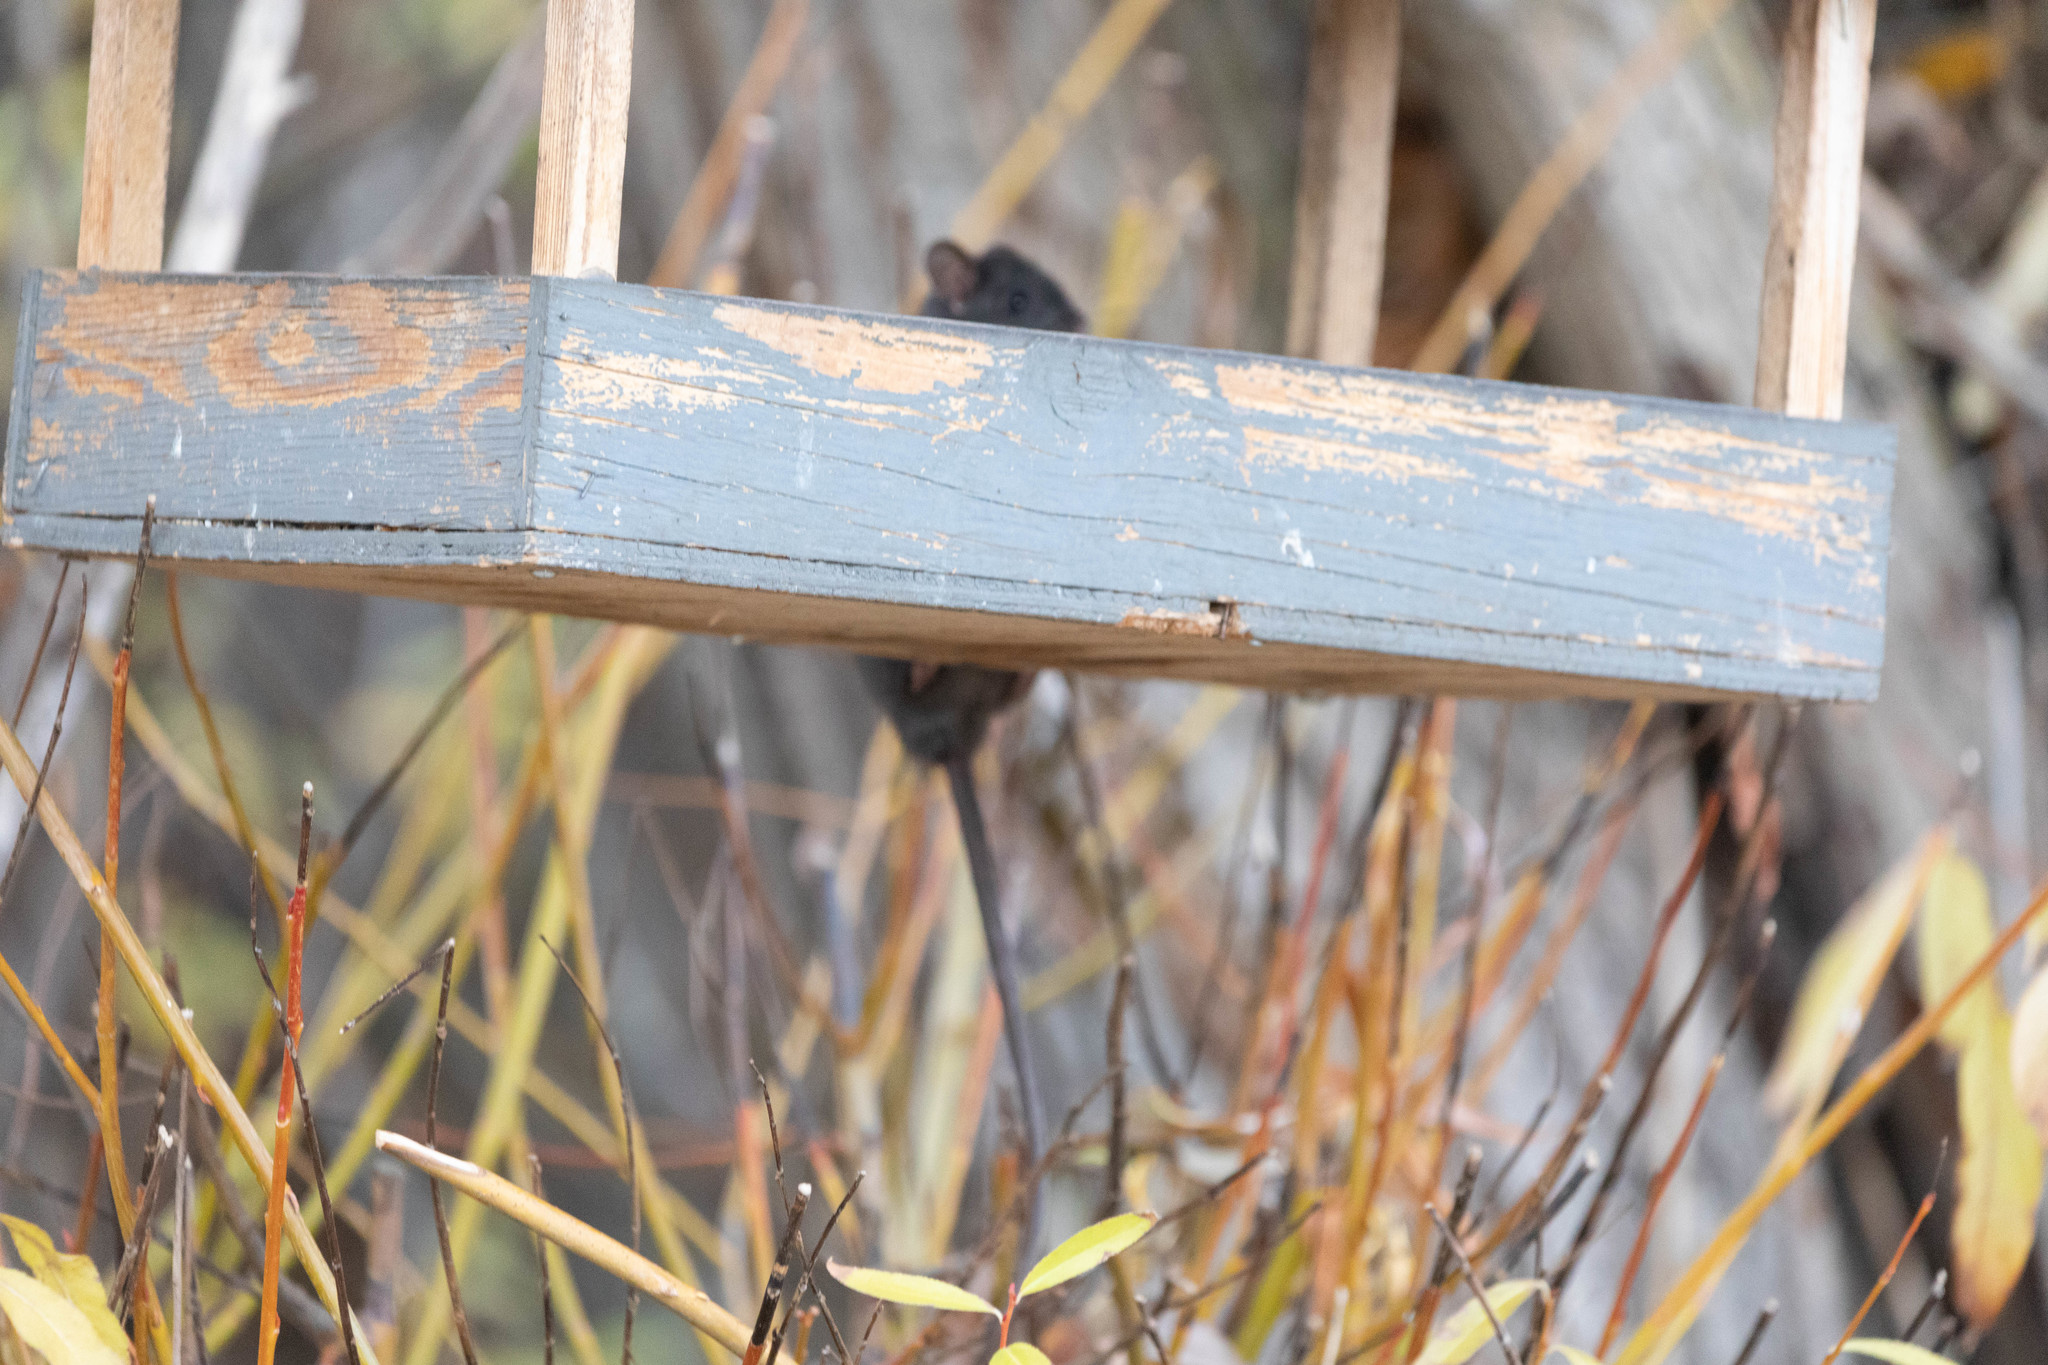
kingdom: Animalia
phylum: Chordata
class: Mammalia
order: Rodentia
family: Muridae
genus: Rattus
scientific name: Rattus rattus
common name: Black rat
